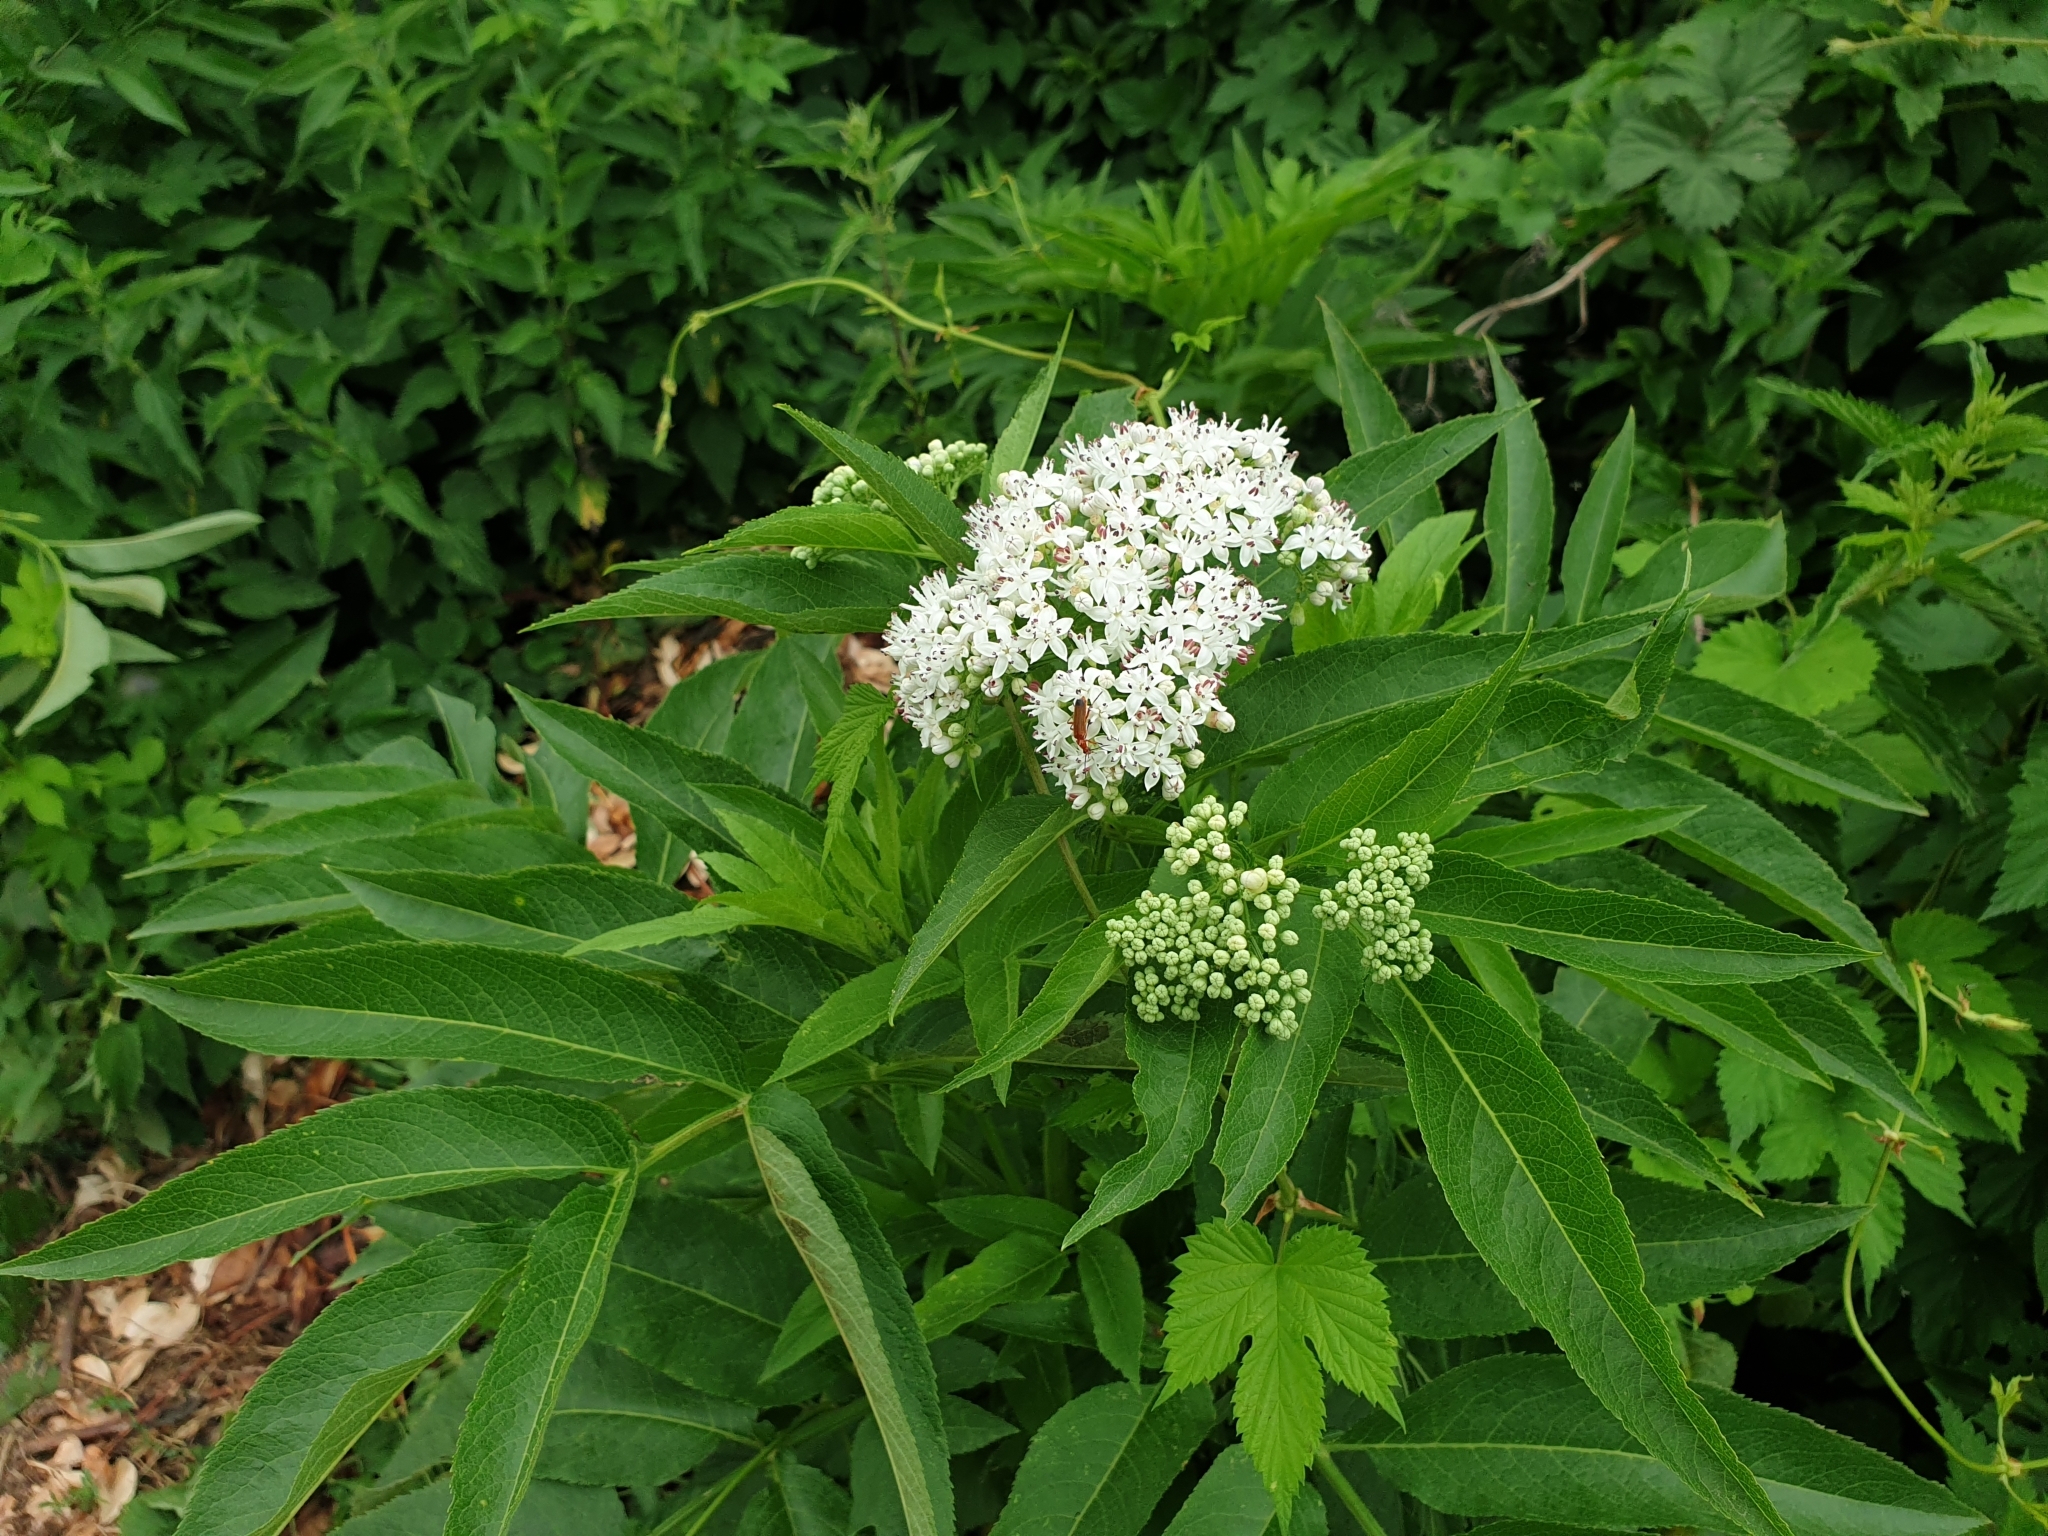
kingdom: Plantae
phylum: Tracheophyta
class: Magnoliopsida
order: Dipsacales
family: Viburnaceae
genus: Sambucus
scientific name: Sambucus ebulus
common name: Dwarf elder
